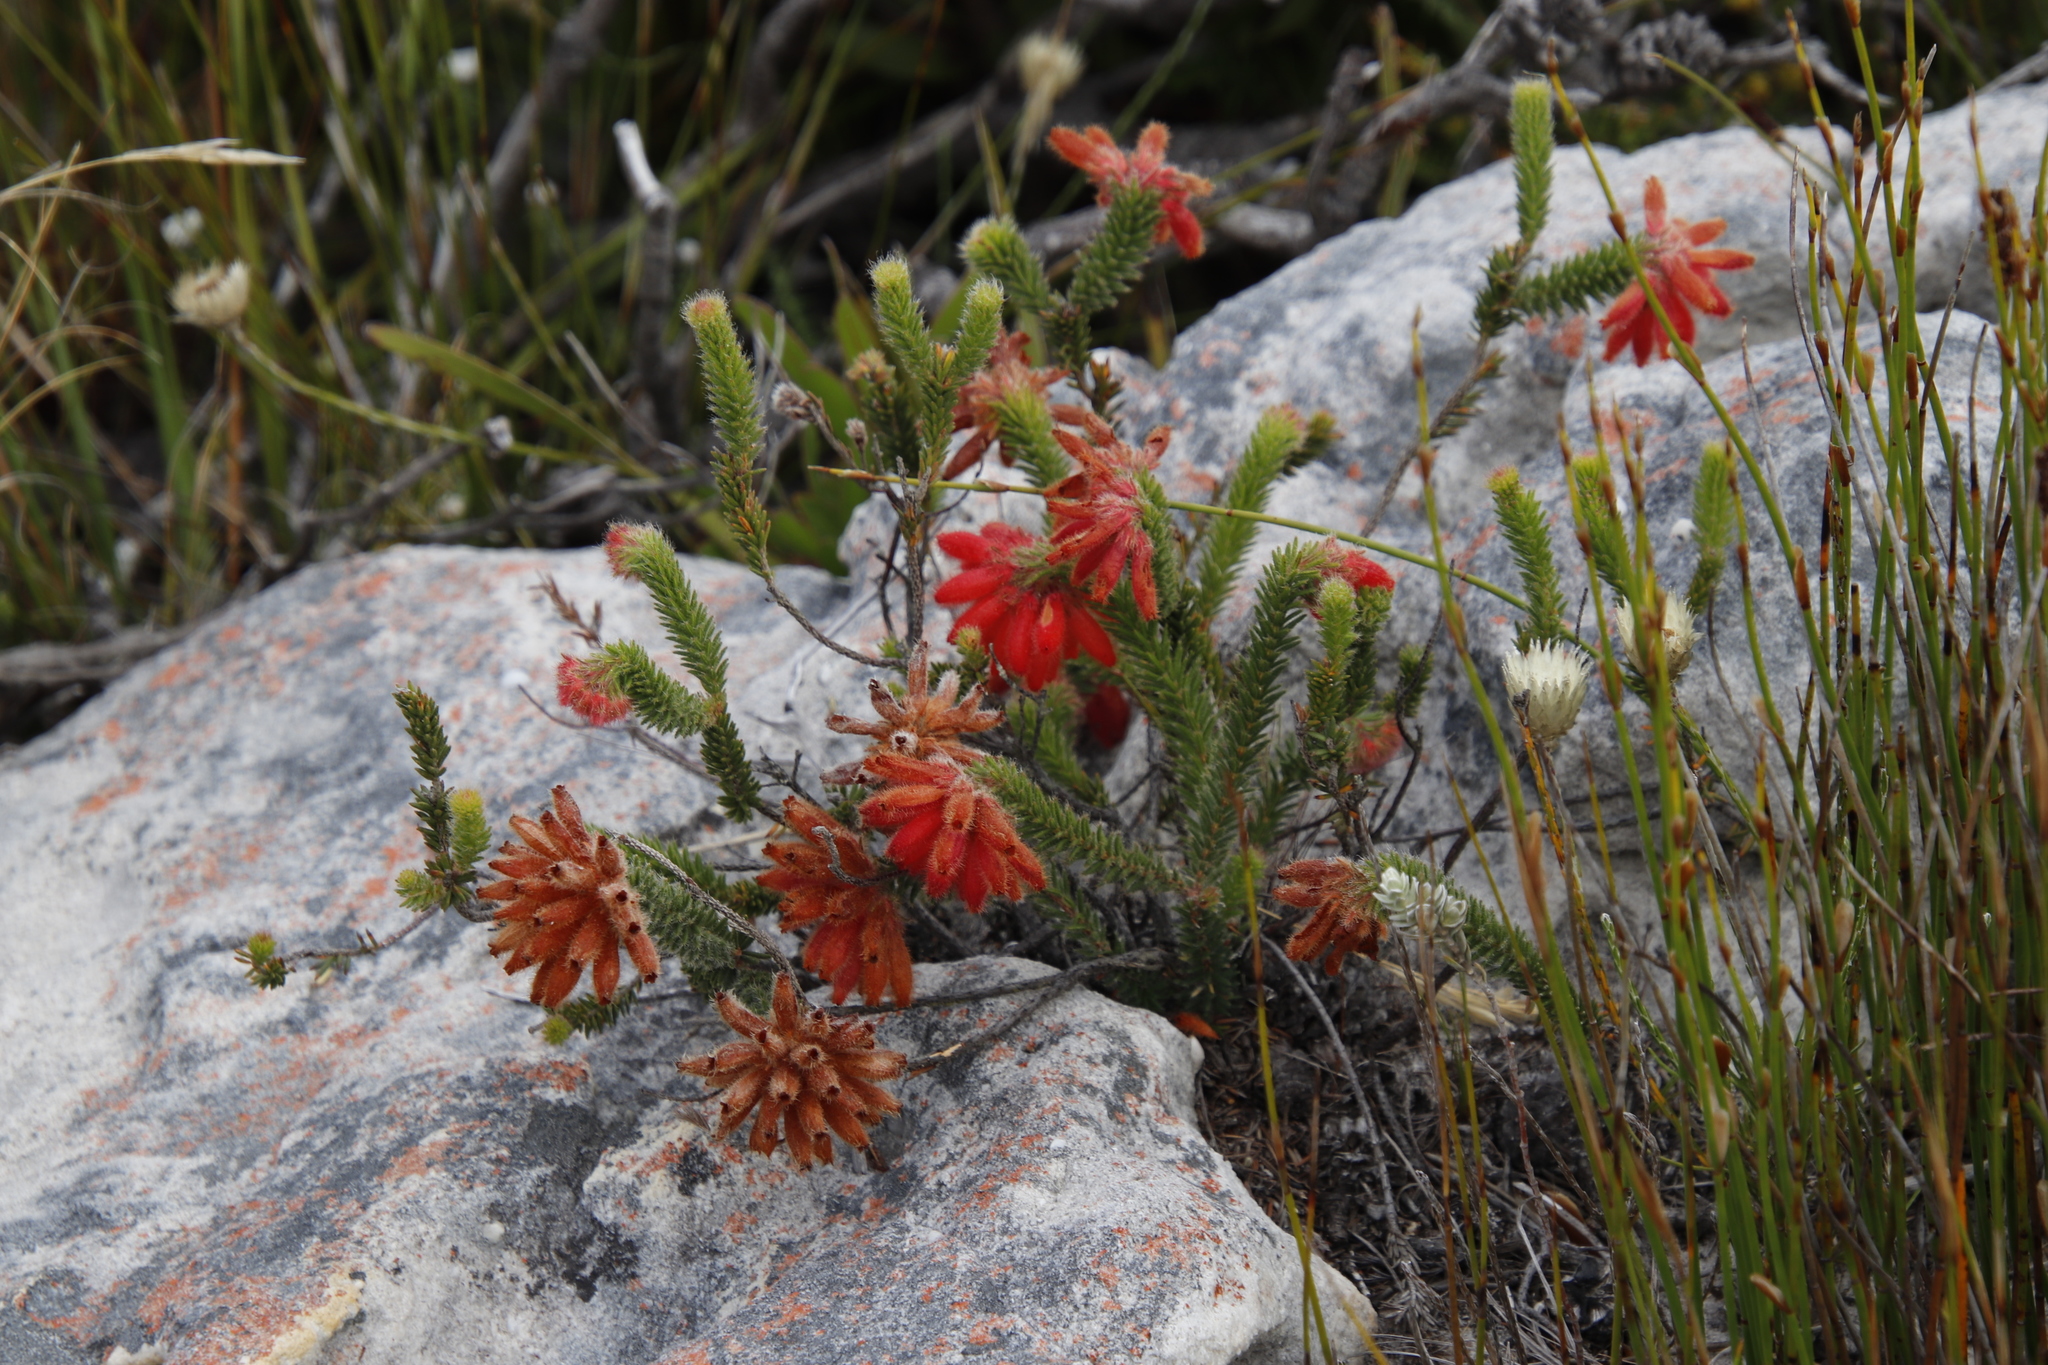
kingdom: Plantae
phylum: Tracheophyta
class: Magnoliopsida
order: Ericales
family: Ericaceae
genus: Erica
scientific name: Erica cerinthoides
